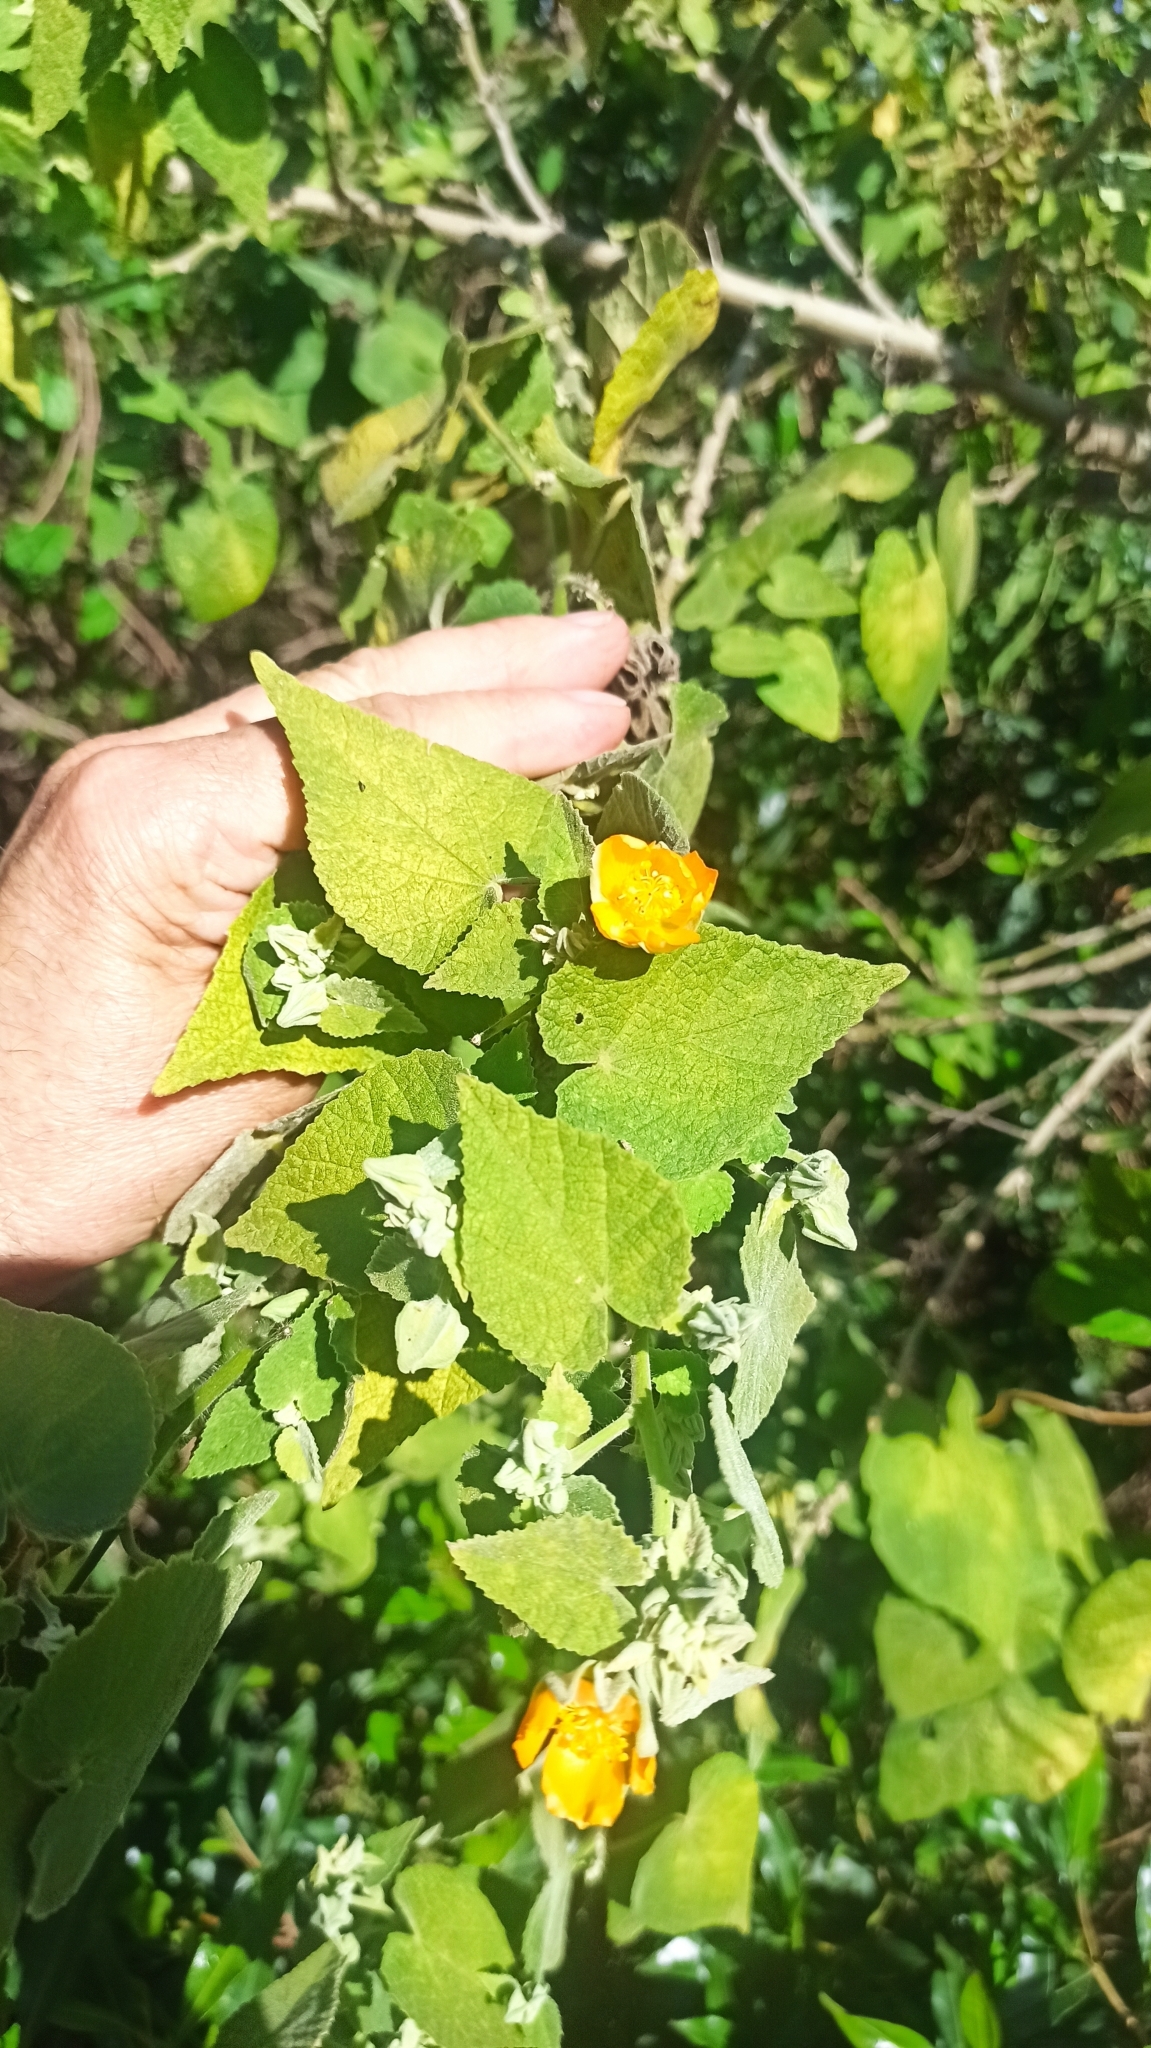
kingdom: Plantae
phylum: Tracheophyta
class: Magnoliopsida
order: Malvales
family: Malvaceae
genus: Callianthe
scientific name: Callianthe pauciflora
